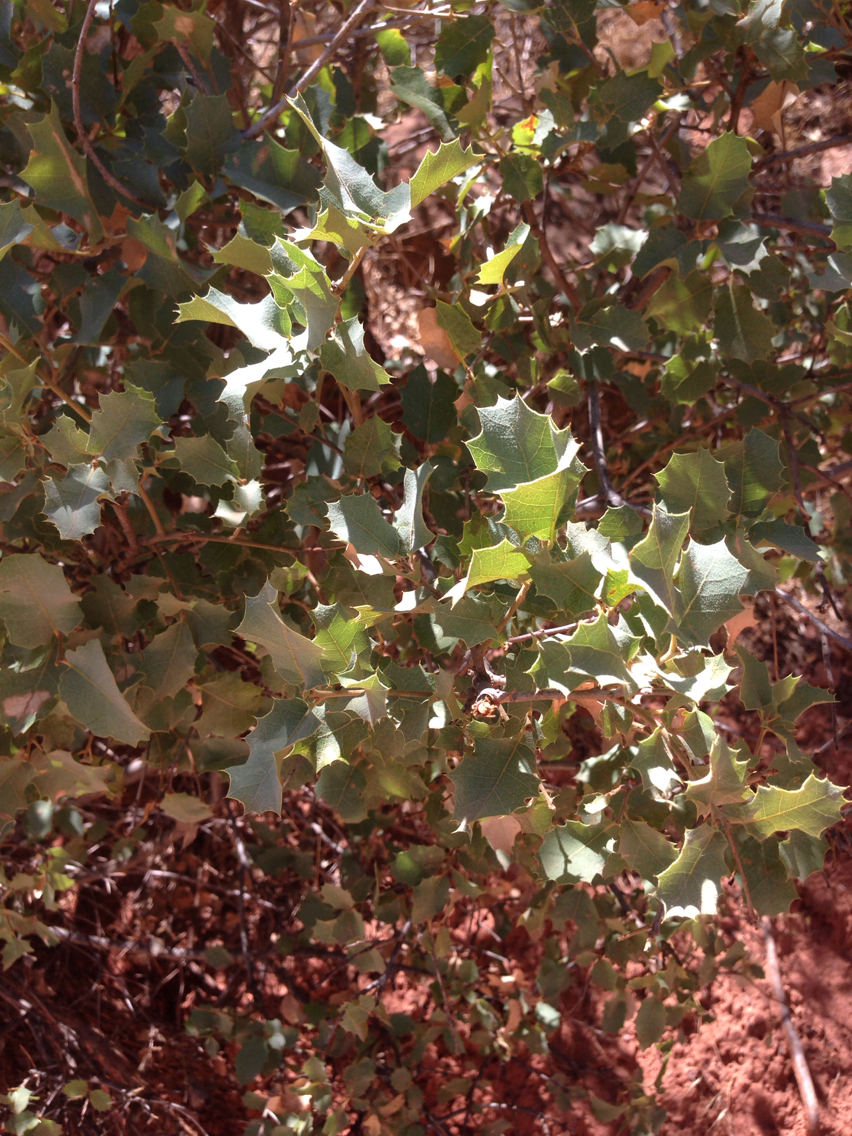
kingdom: Plantae
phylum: Tracheophyta
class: Magnoliopsida
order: Fagales
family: Fagaceae
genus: Quercus
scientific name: Quercus turbinella
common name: Sonoran scrub oak
